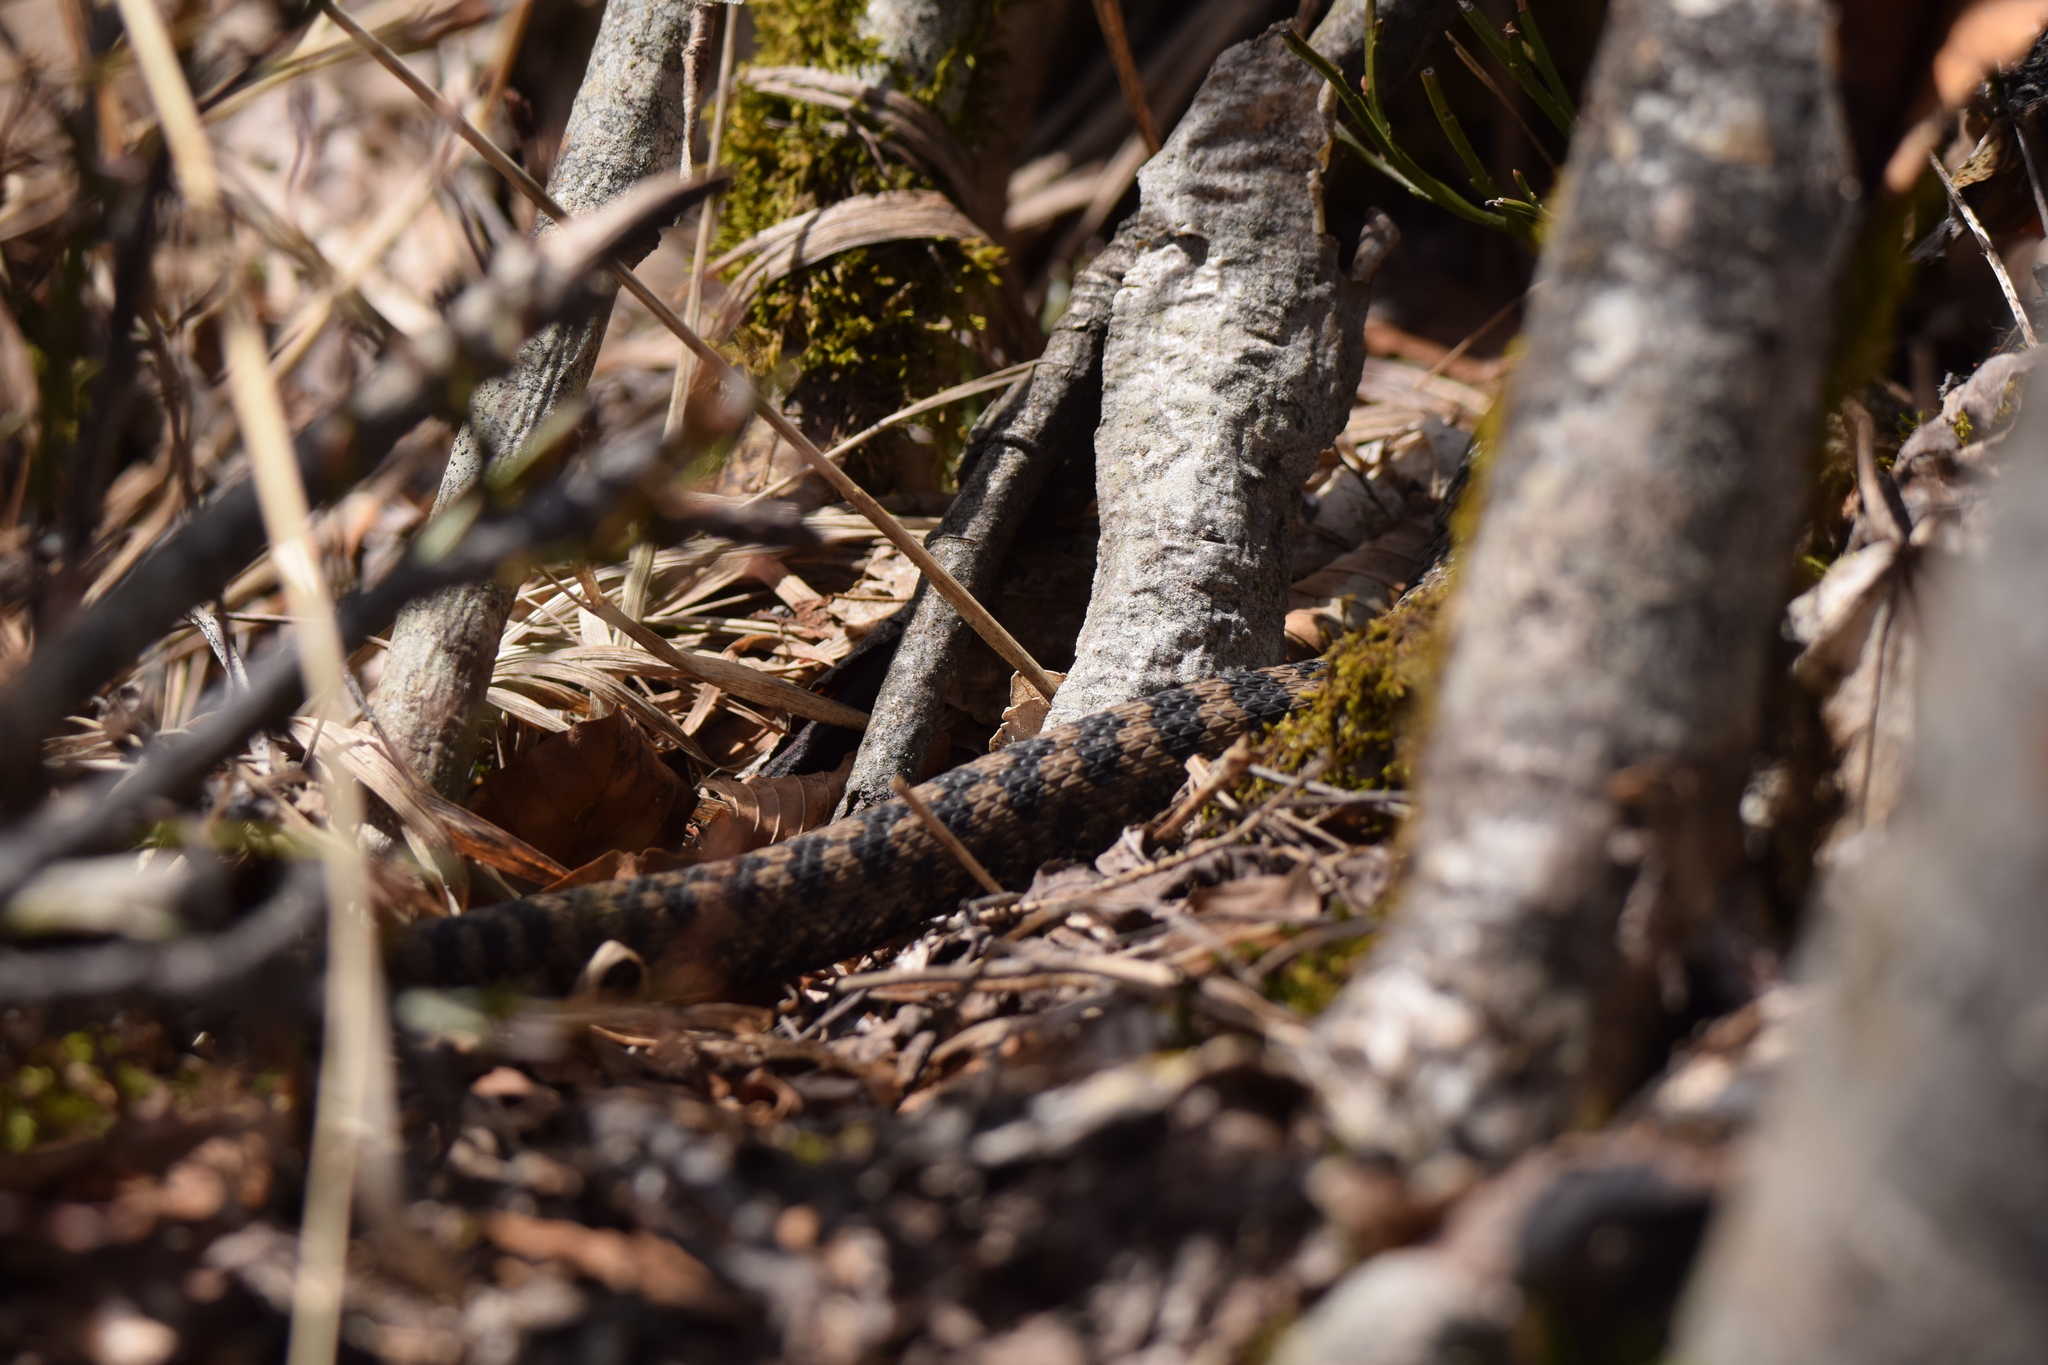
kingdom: Animalia
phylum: Chordata
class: Squamata
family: Viperidae
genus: Vipera
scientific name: Vipera aspis
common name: Asp viper
